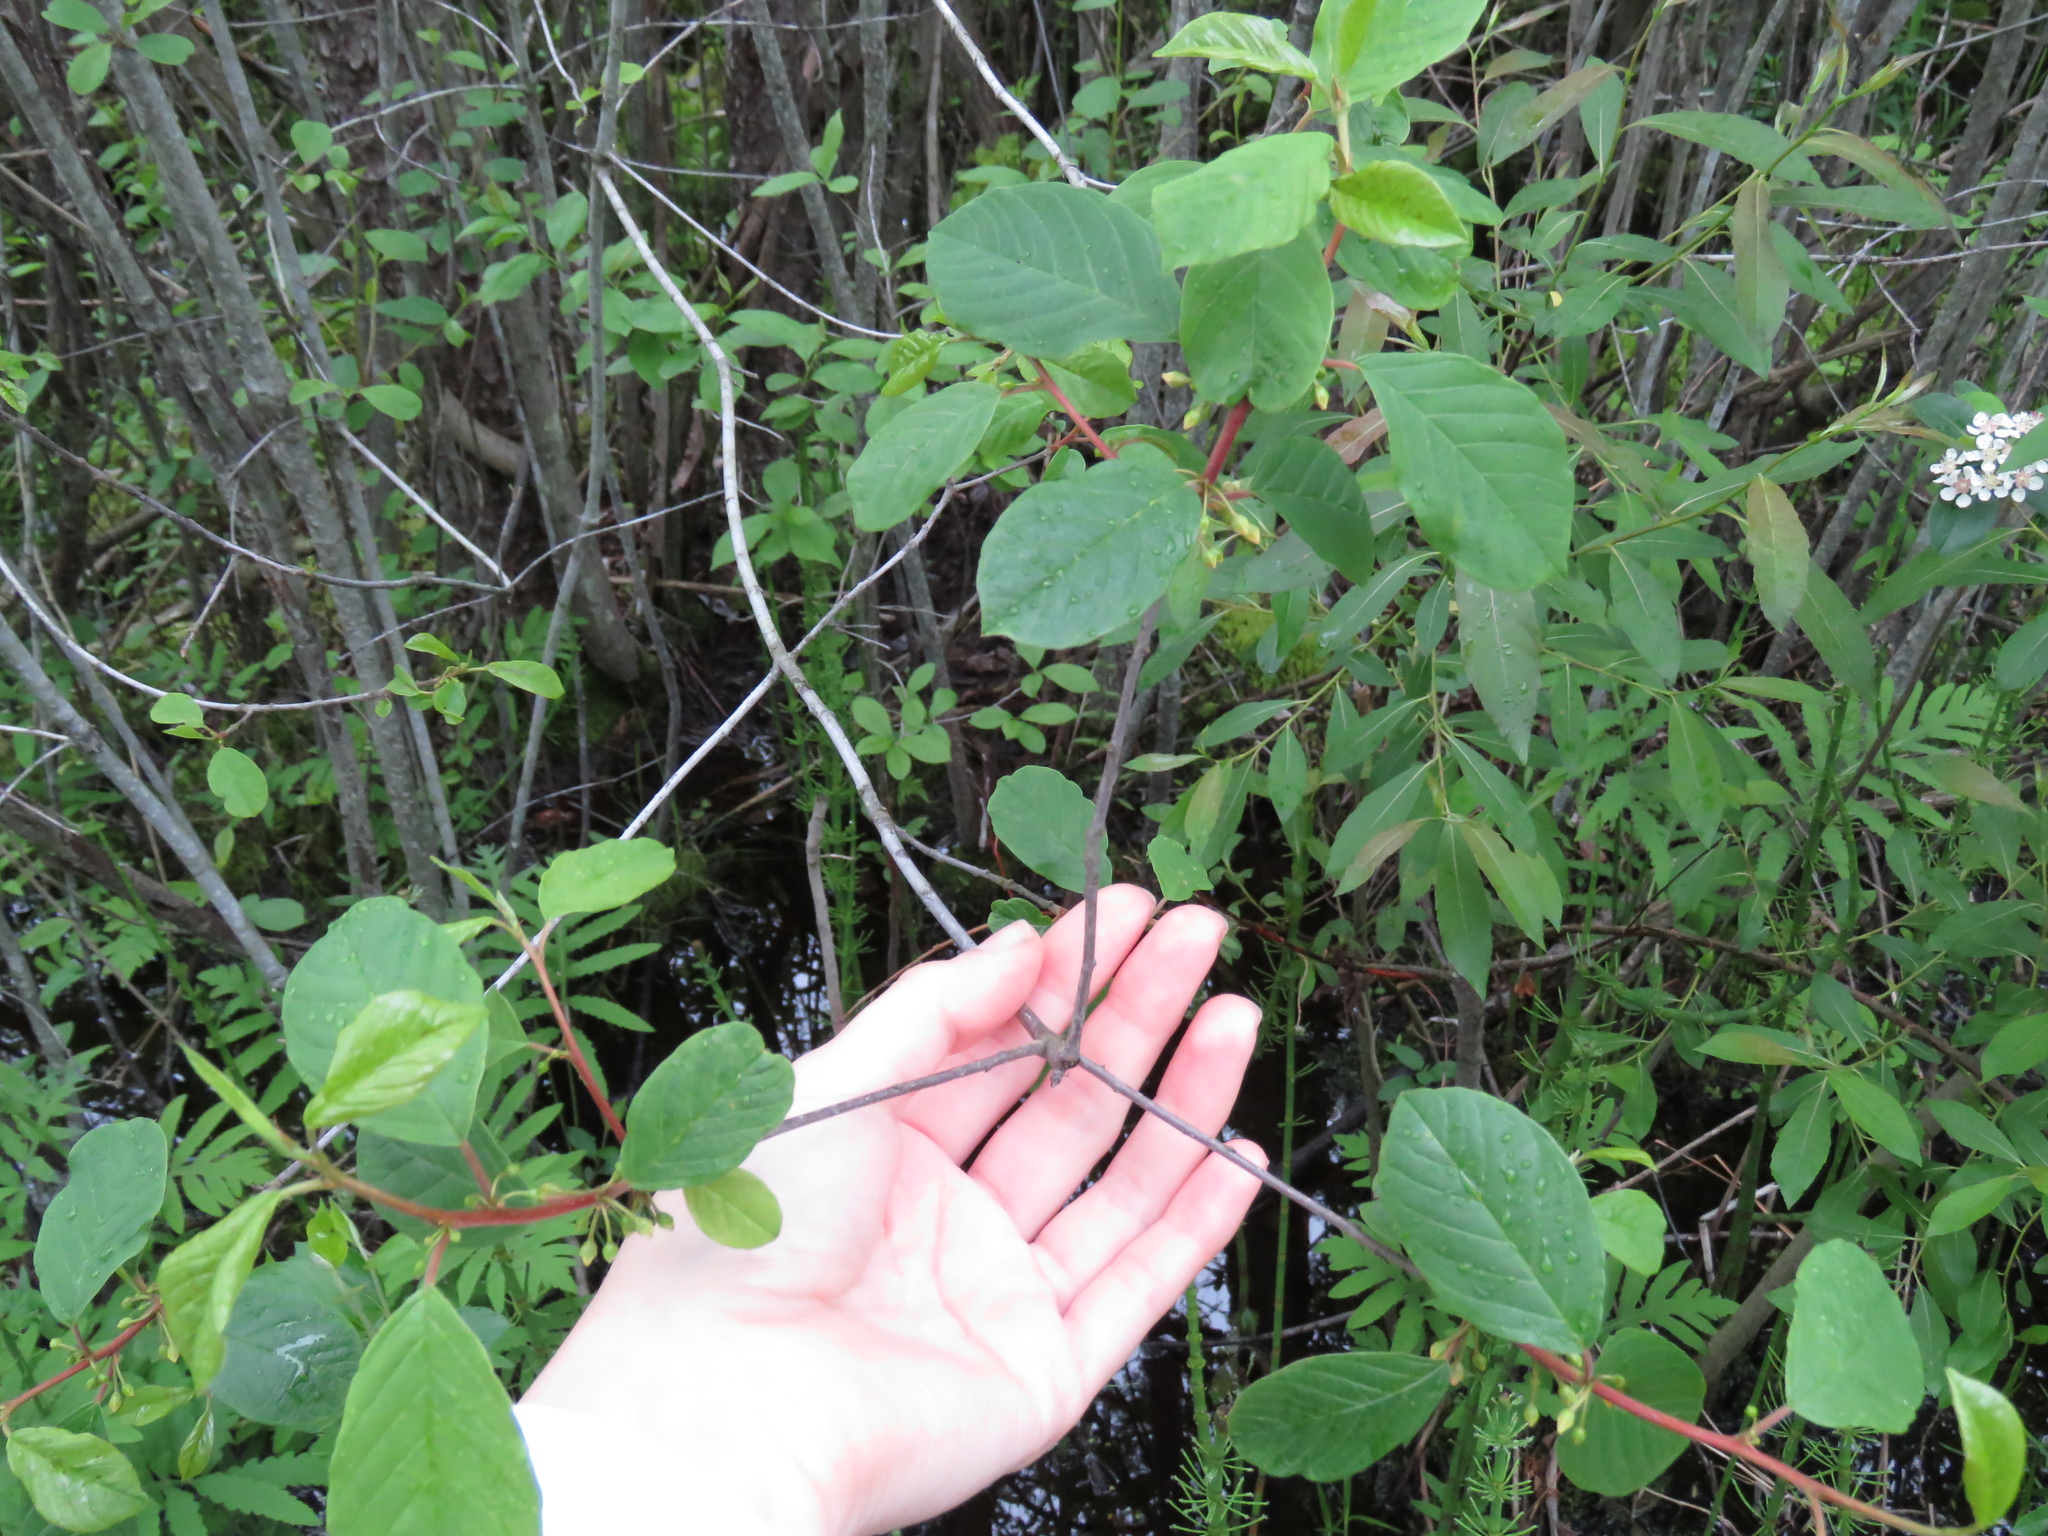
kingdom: Plantae
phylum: Tracheophyta
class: Magnoliopsida
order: Rosales
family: Rhamnaceae
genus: Frangula
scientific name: Frangula alnus
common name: Alder buckthorn
